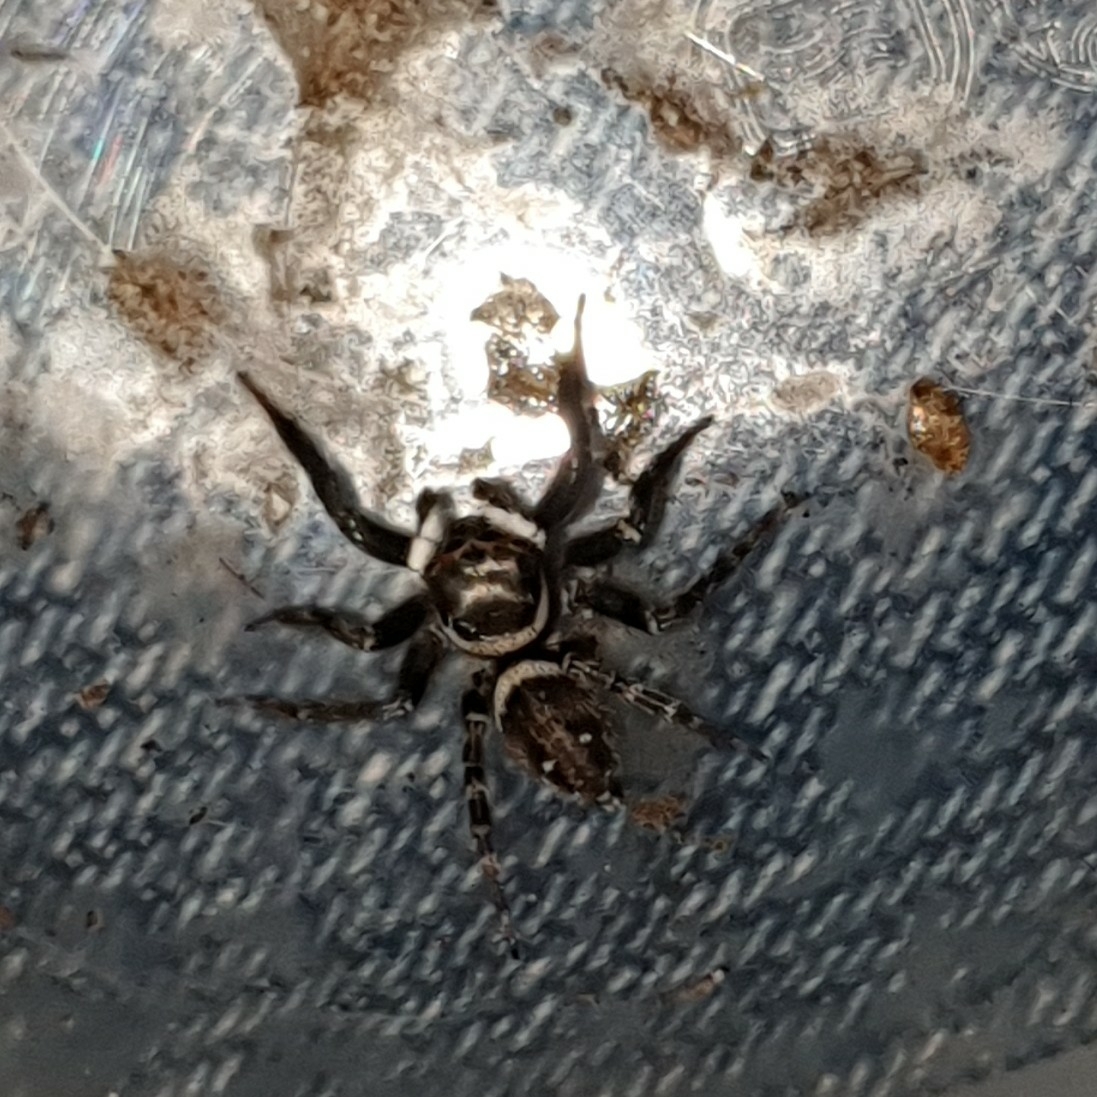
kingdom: Animalia
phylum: Arthropoda
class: Arachnida
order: Araneae
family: Salticidae
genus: Hasarius
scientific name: Hasarius adansoni
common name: Jumping spider
